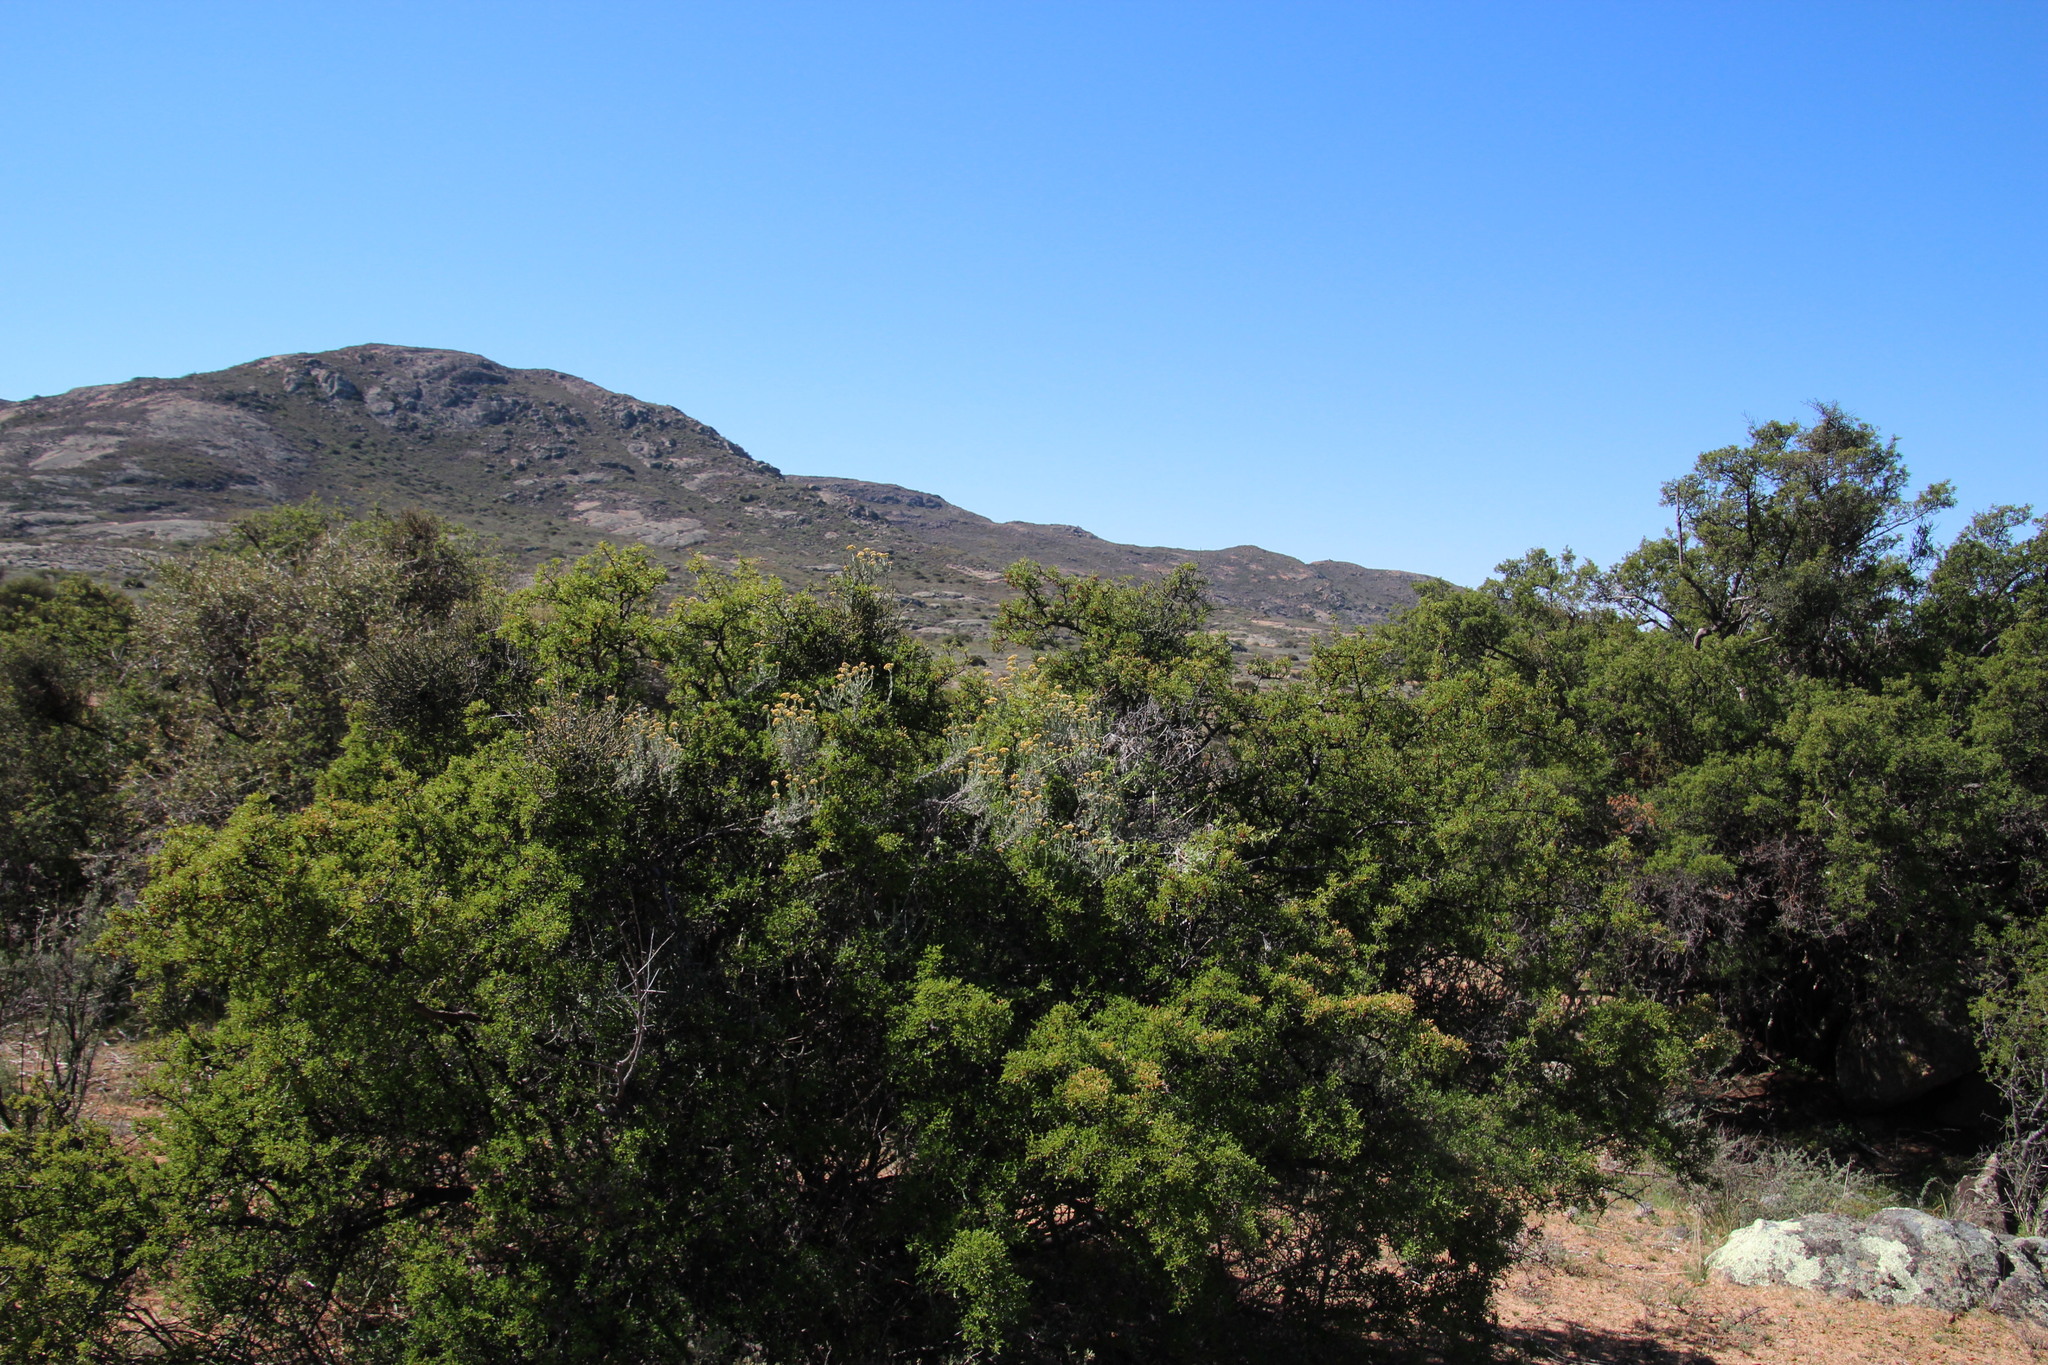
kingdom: Plantae
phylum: Tracheophyta
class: Magnoliopsida
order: Sapindales
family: Anacardiaceae
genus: Searsia
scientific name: Searsia undulata
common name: Namaqua kunibush
